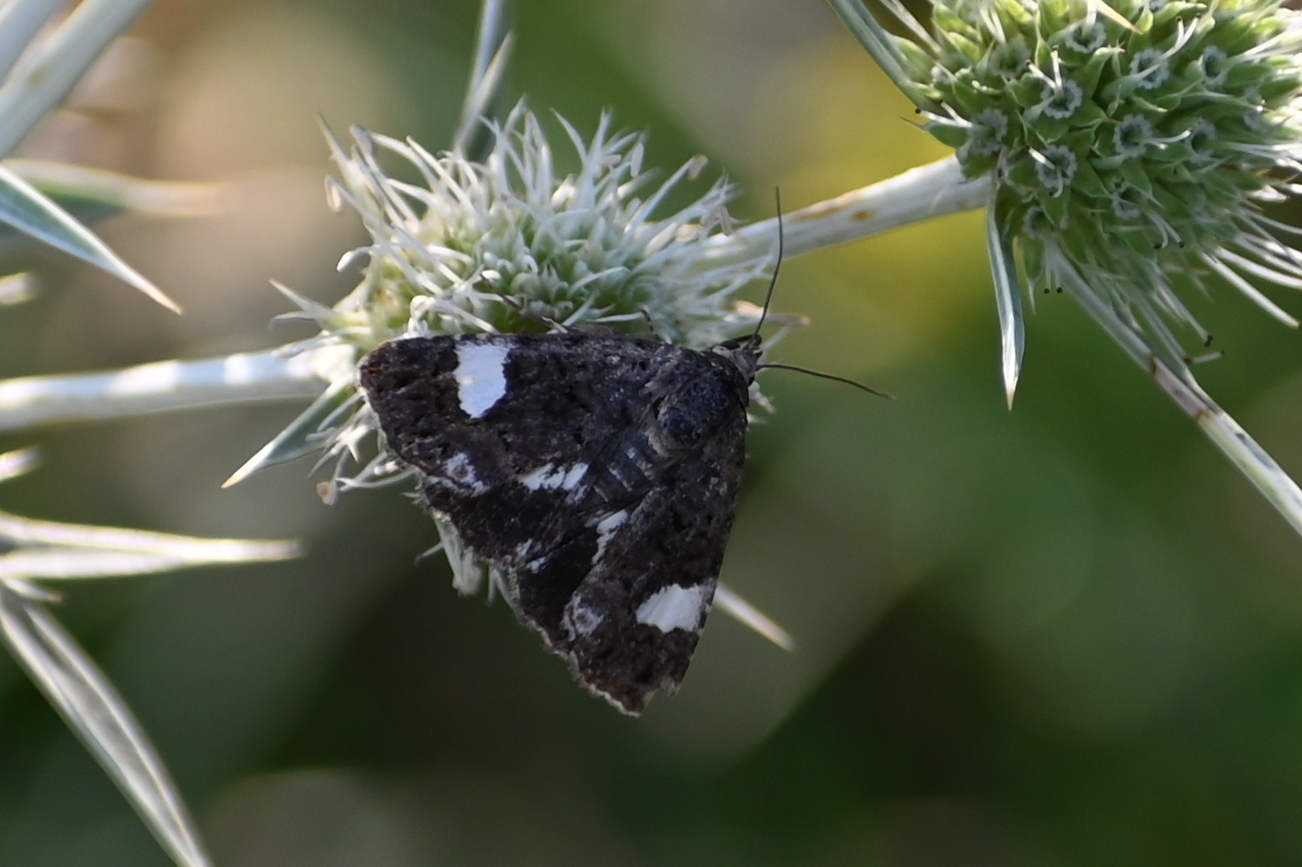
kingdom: Animalia
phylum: Arthropoda
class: Insecta
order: Lepidoptera
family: Erebidae
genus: Tyta
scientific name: Tyta luctuosa
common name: Four-spotted
